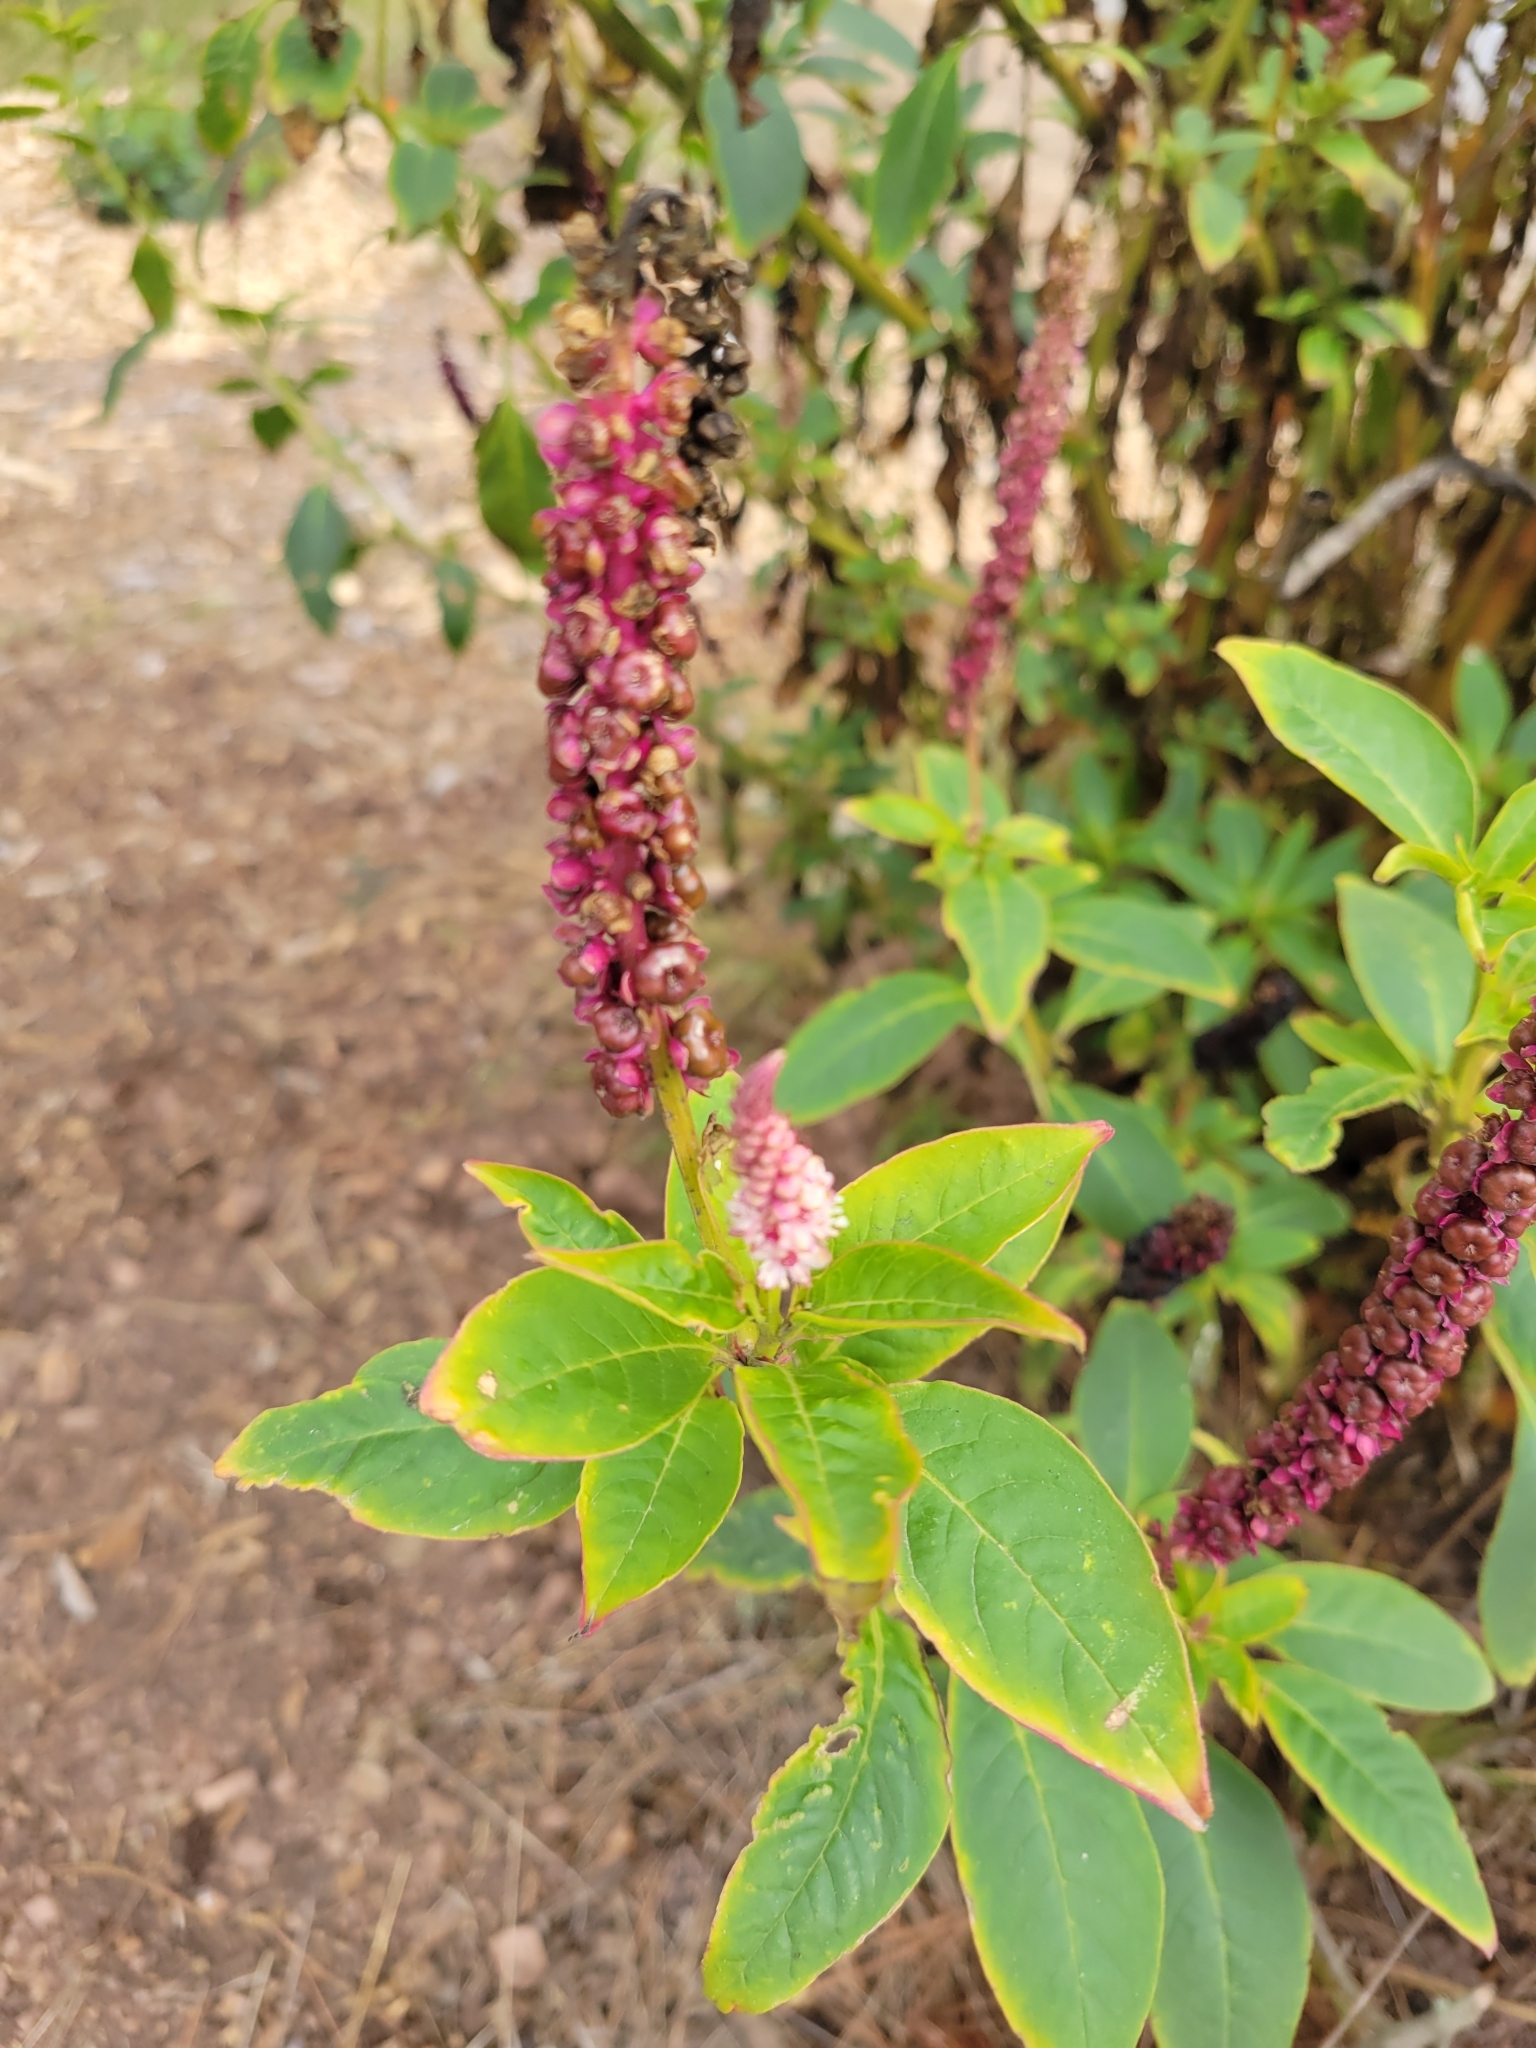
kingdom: Plantae
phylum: Tracheophyta
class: Magnoliopsida
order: Caryophyllales
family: Phytolaccaceae
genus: Phytolacca
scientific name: Phytolacca
